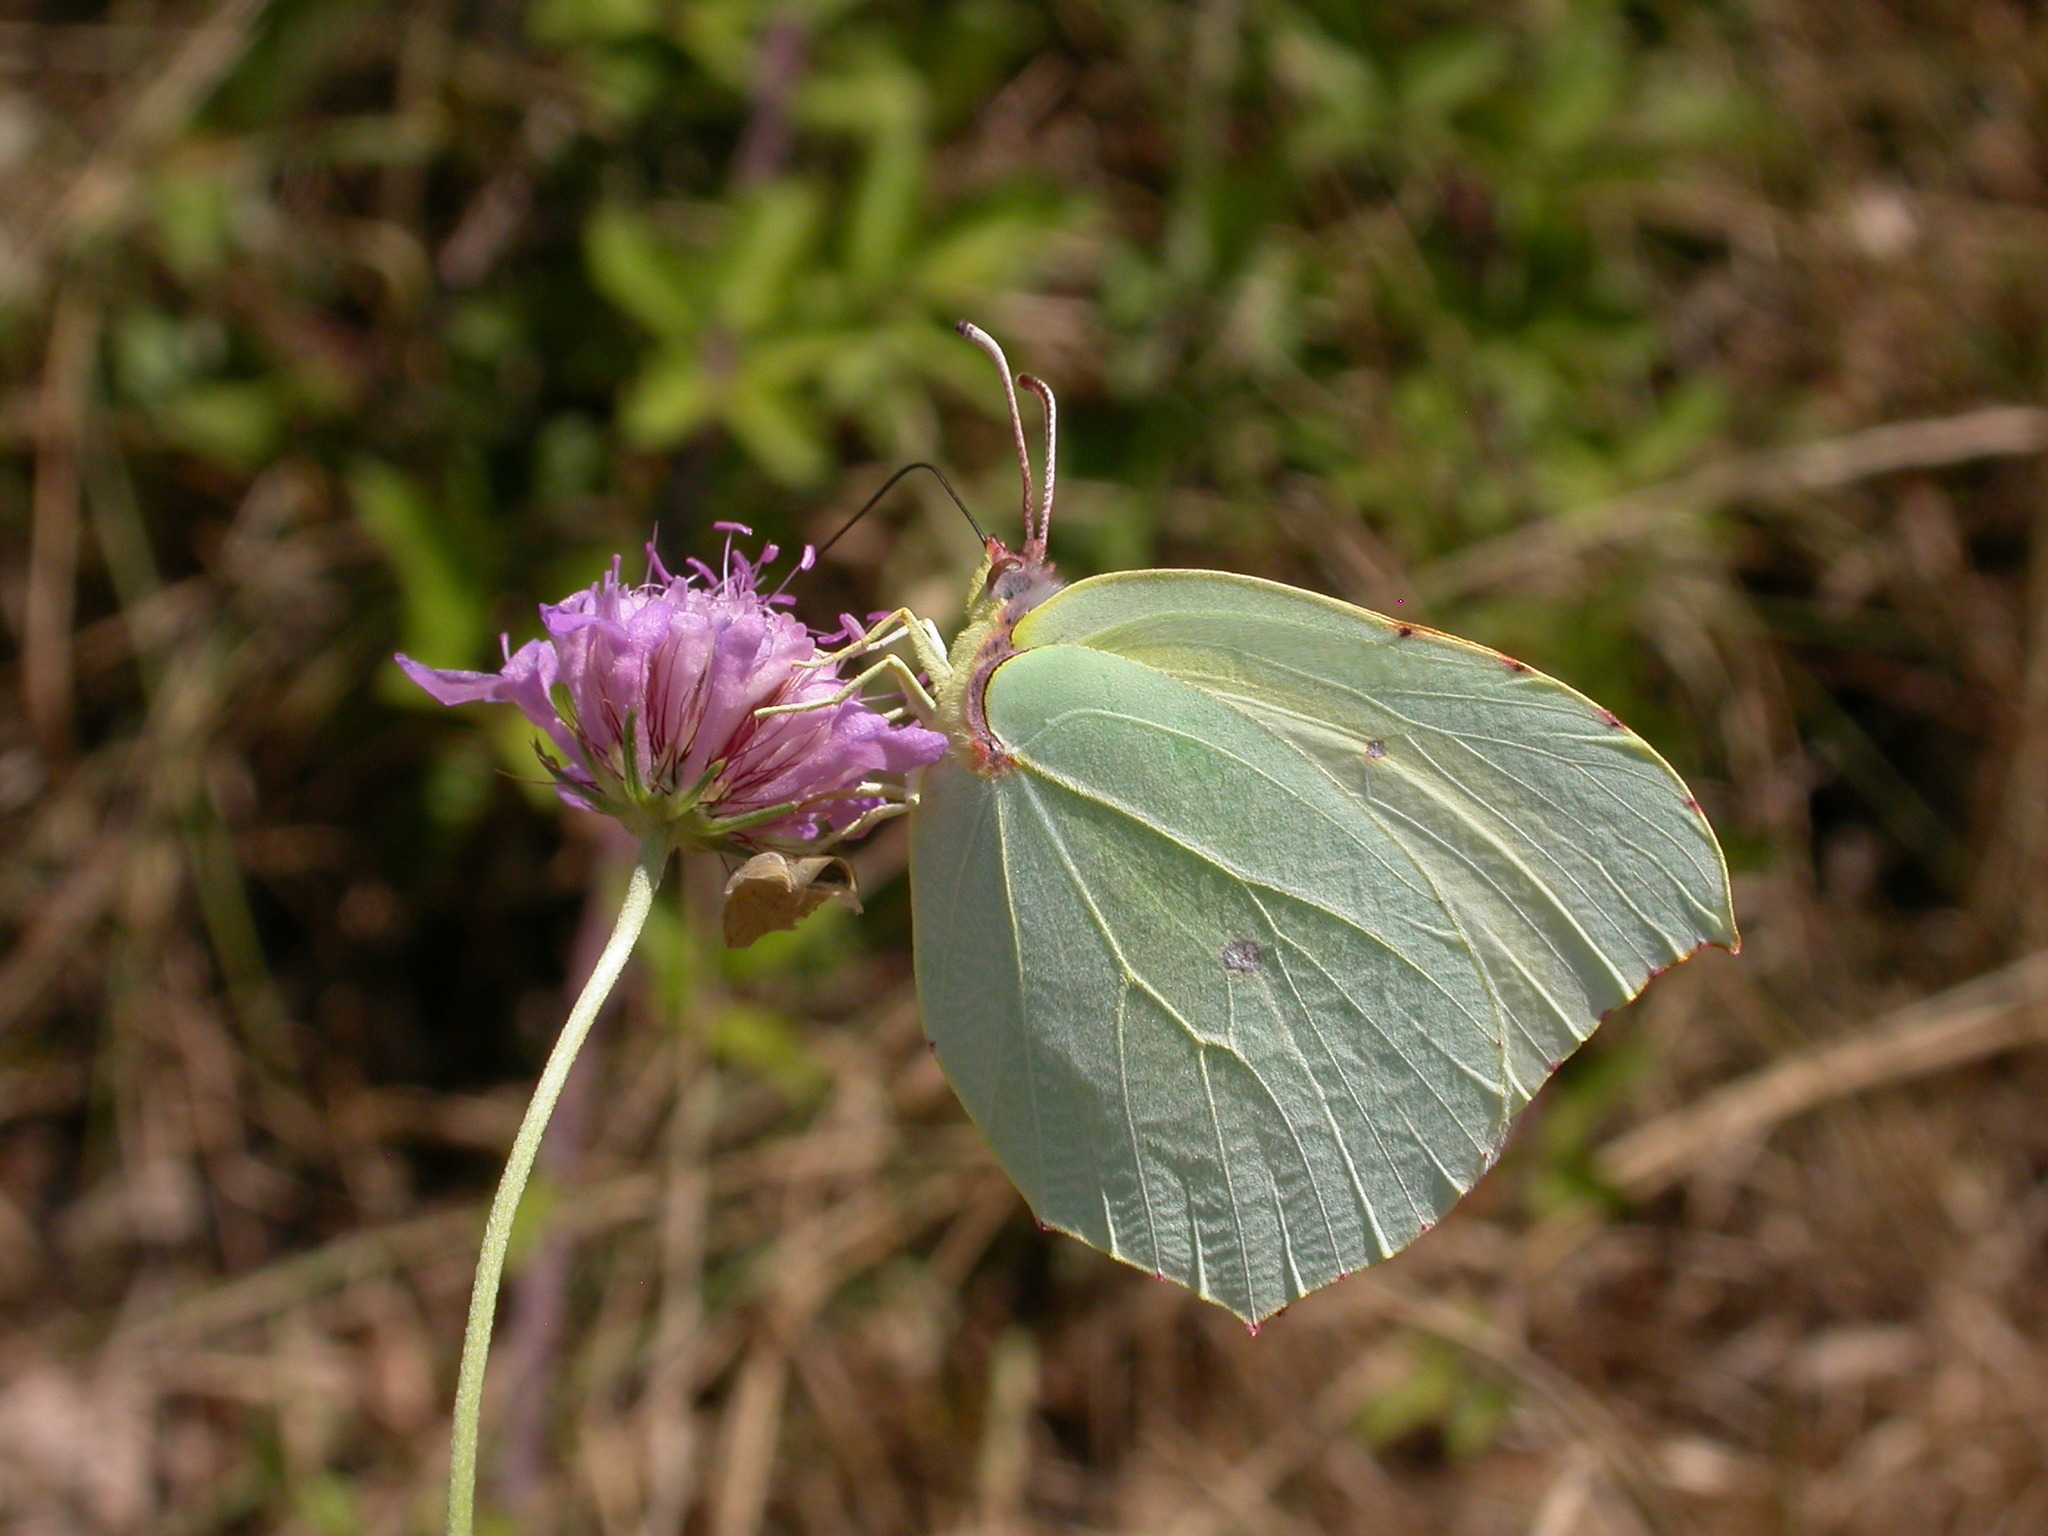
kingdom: Animalia
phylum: Arthropoda
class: Insecta
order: Lepidoptera
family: Pieridae
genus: Gonepteryx
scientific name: Gonepteryx cleopatra
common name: Cleopatra
